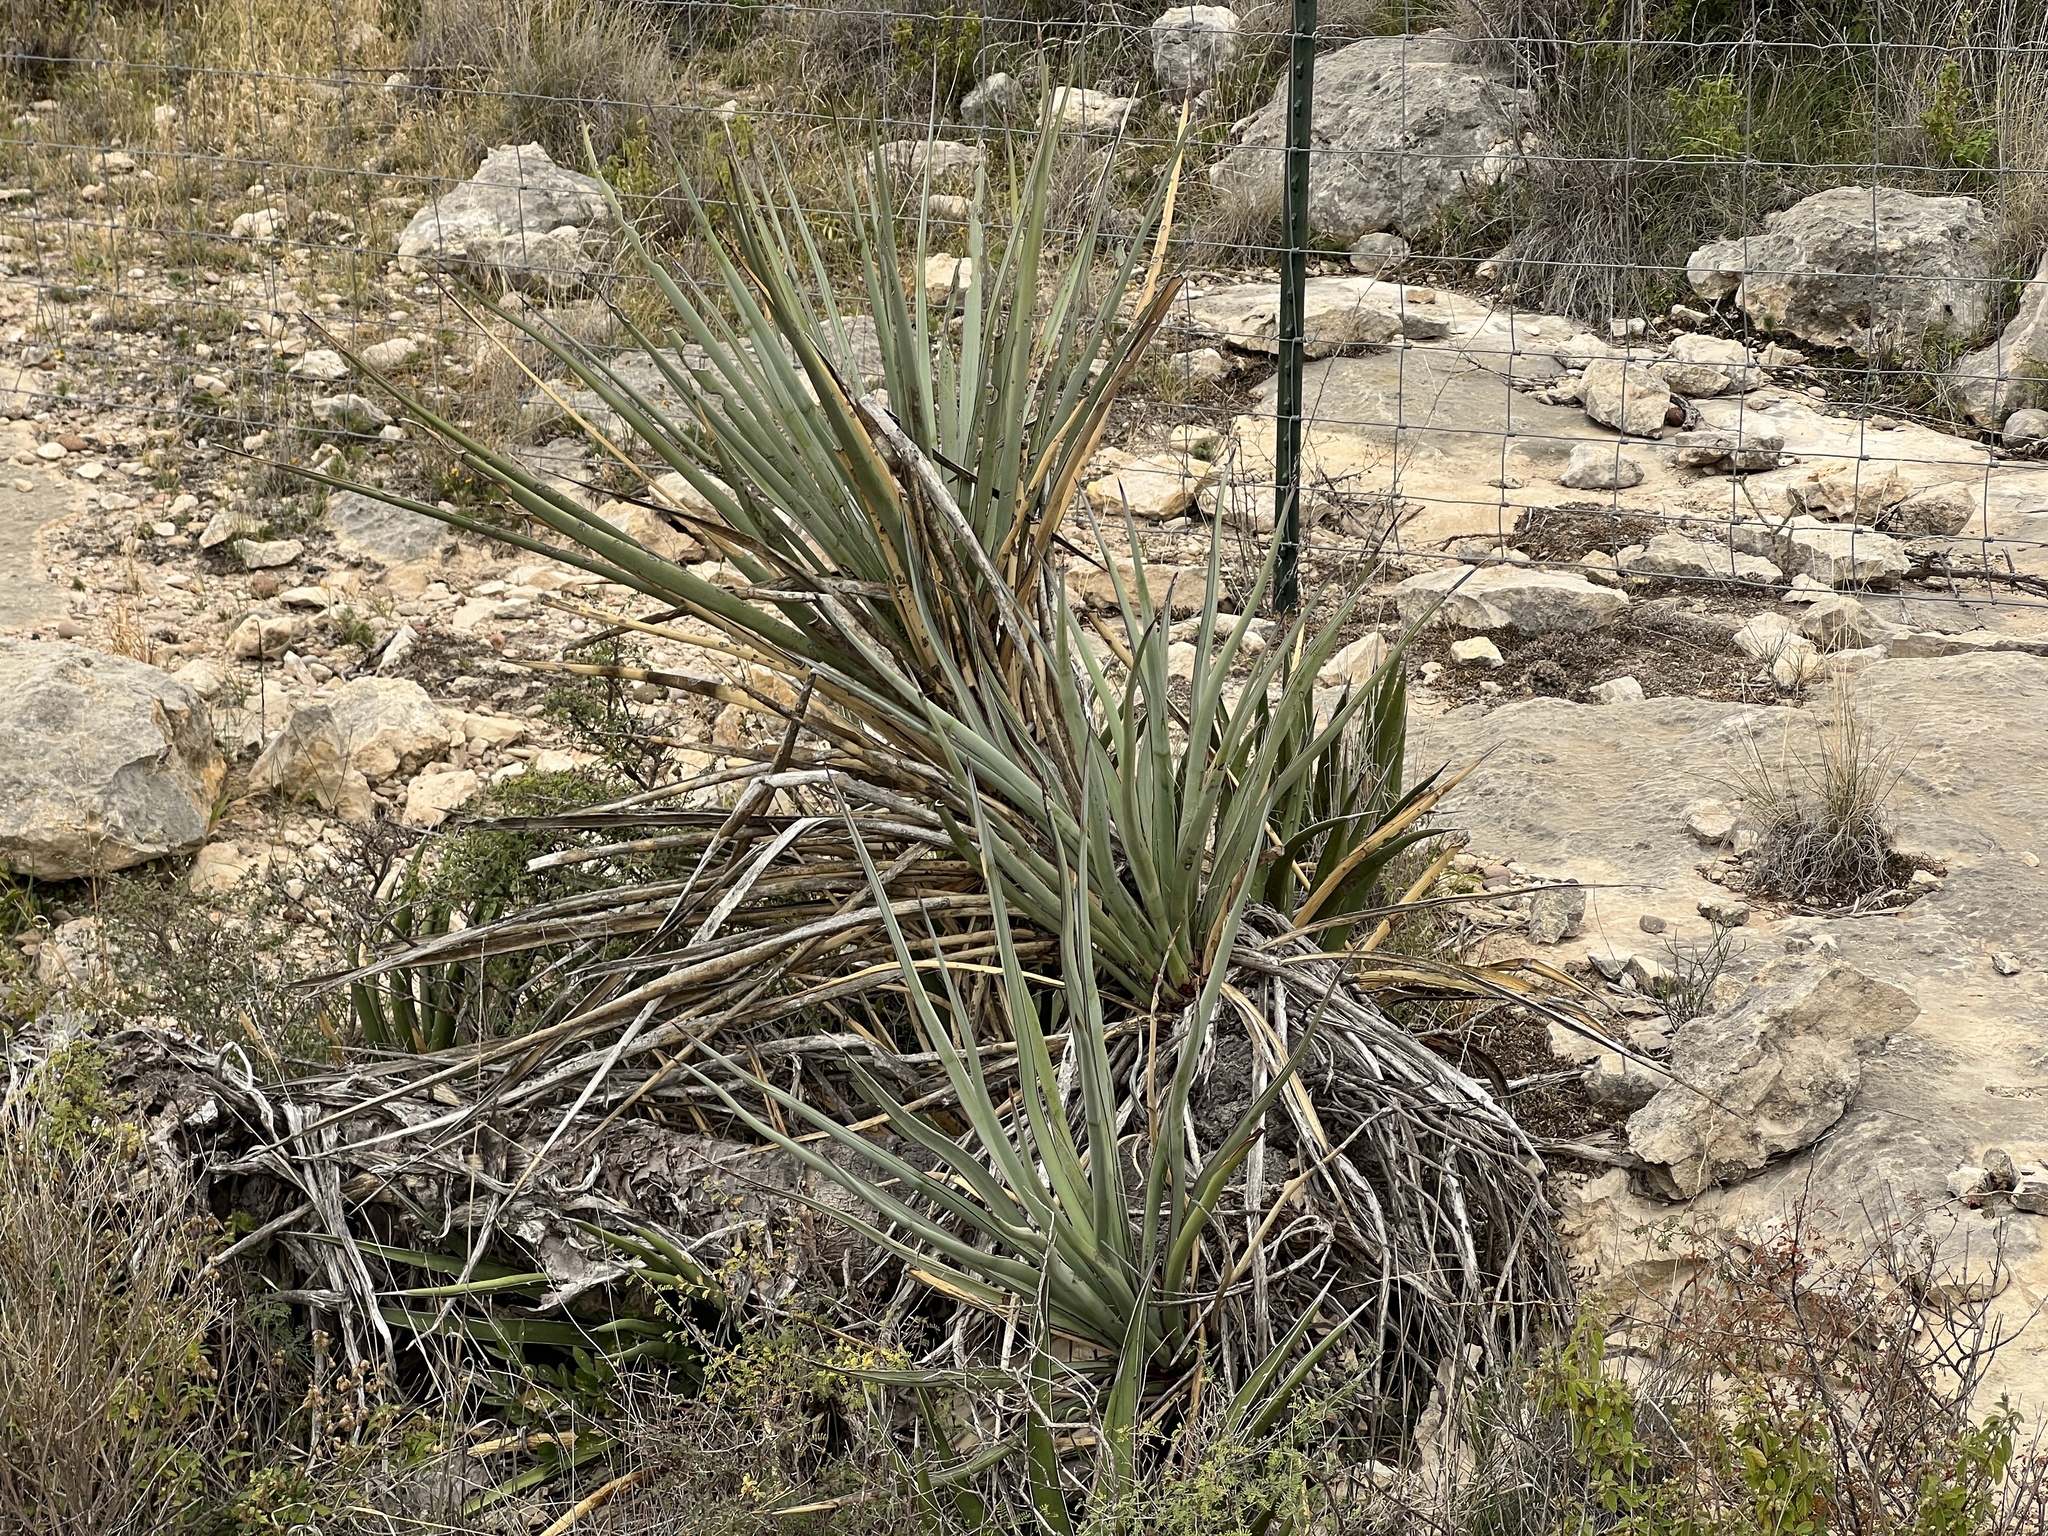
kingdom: Plantae
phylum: Tracheophyta
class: Liliopsida
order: Asparagales
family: Asparagaceae
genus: Yucca
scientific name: Yucca treculiana
